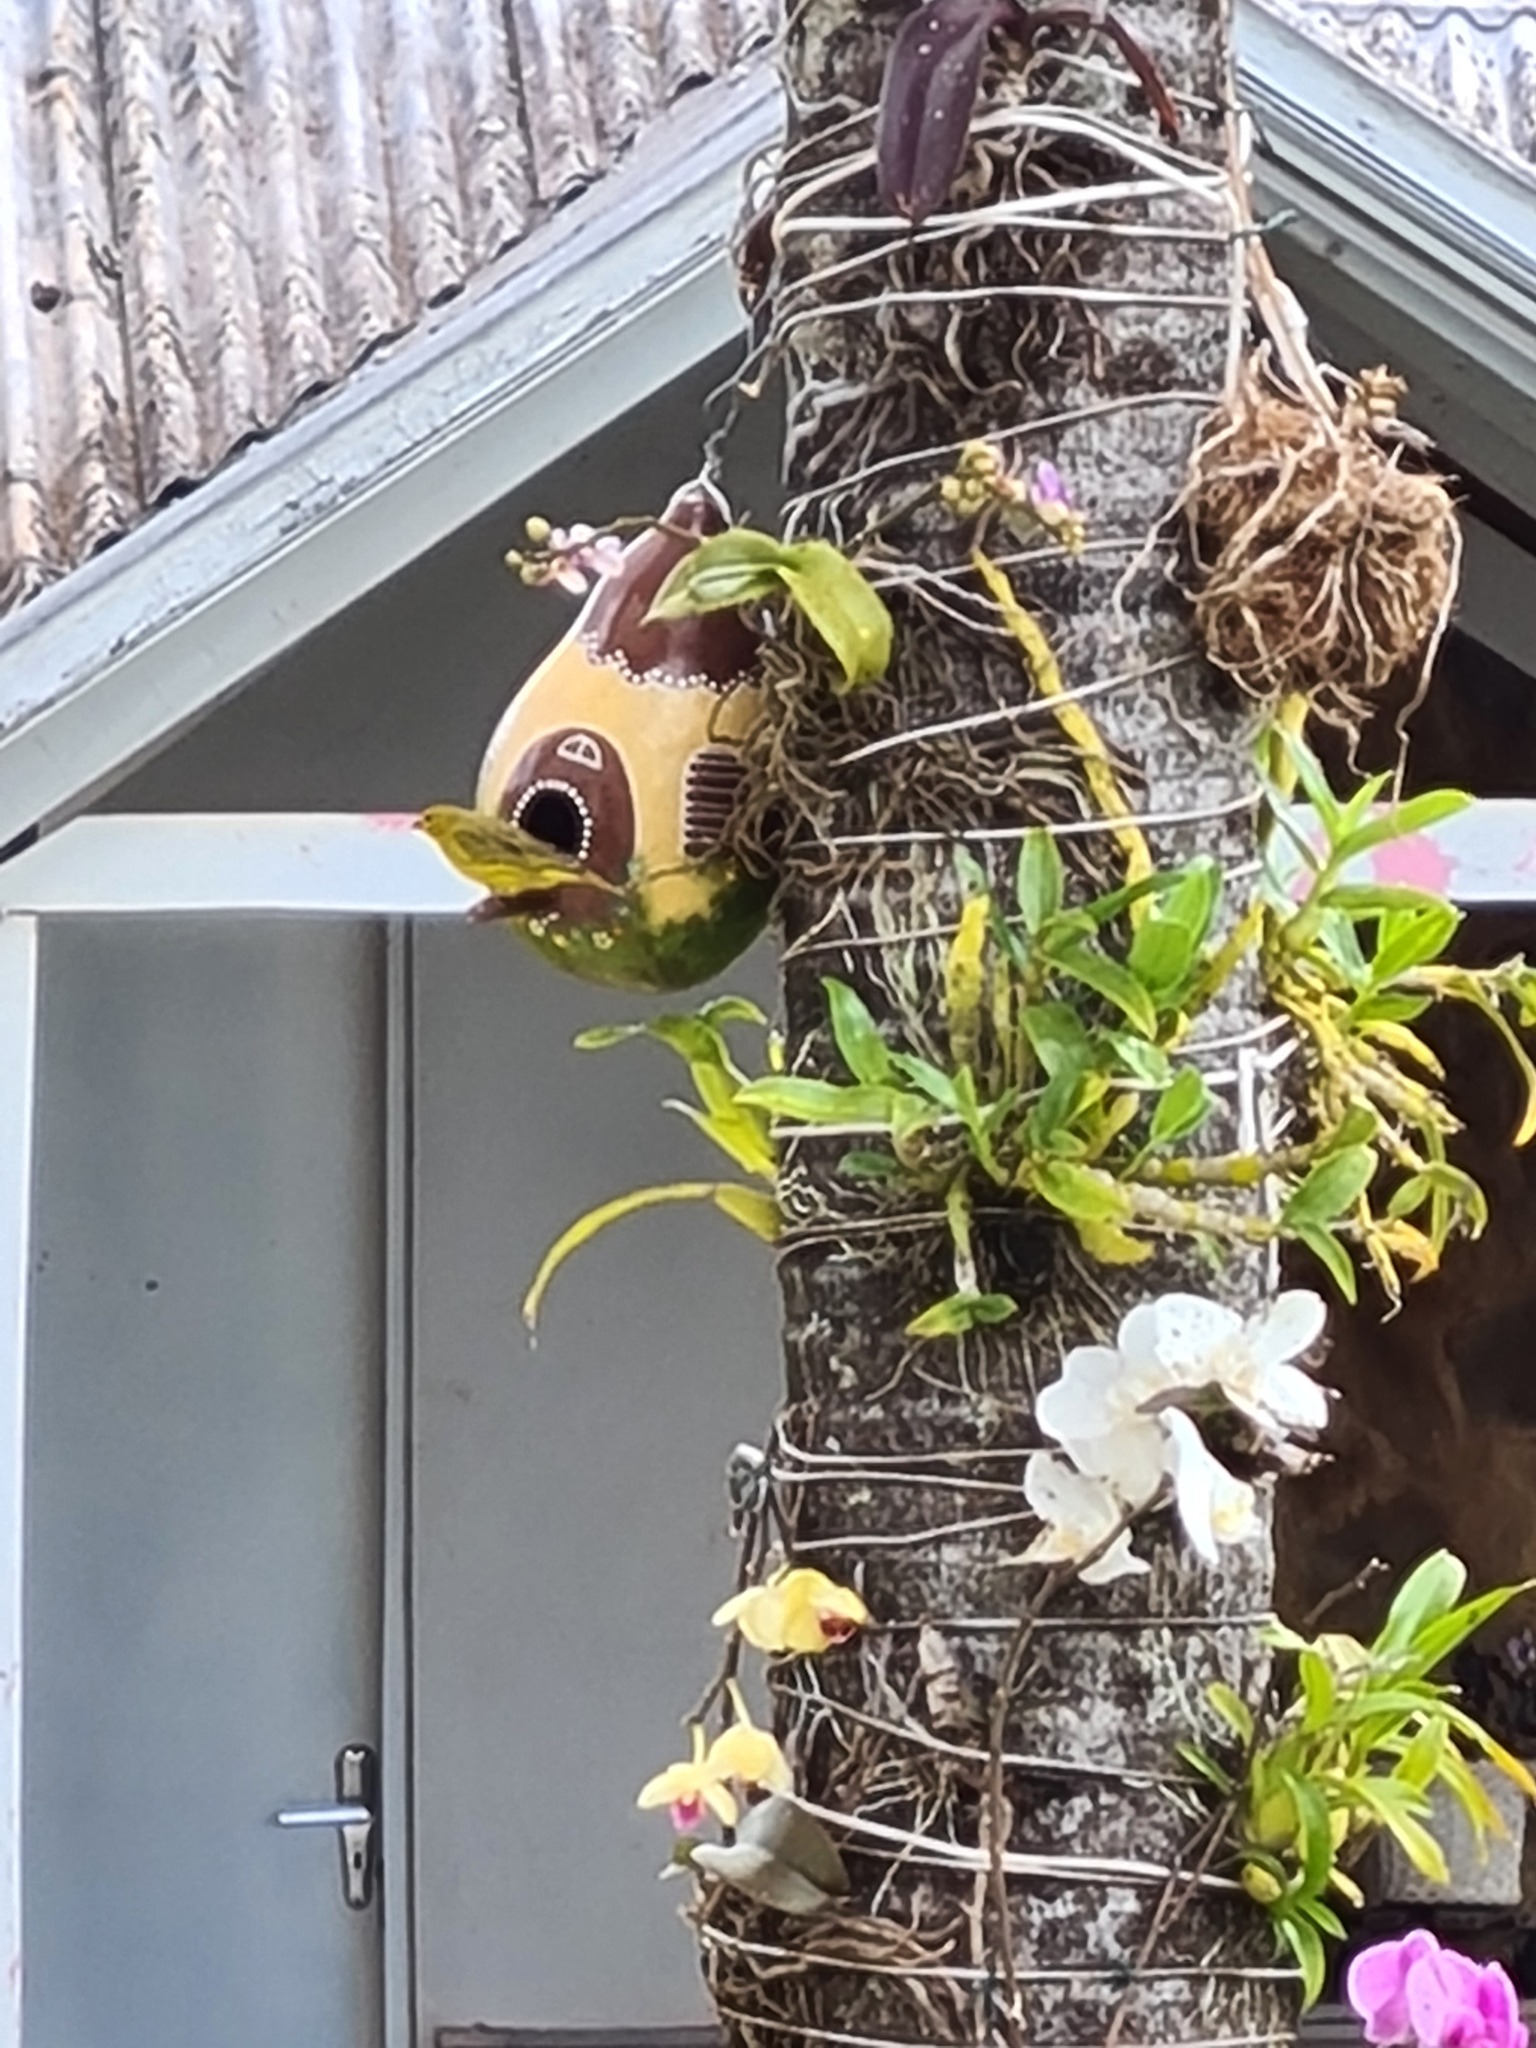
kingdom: Animalia
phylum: Chordata
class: Aves
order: Passeriformes
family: Thraupidae
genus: Sicalis
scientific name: Sicalis flaveola
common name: Saffron finch
